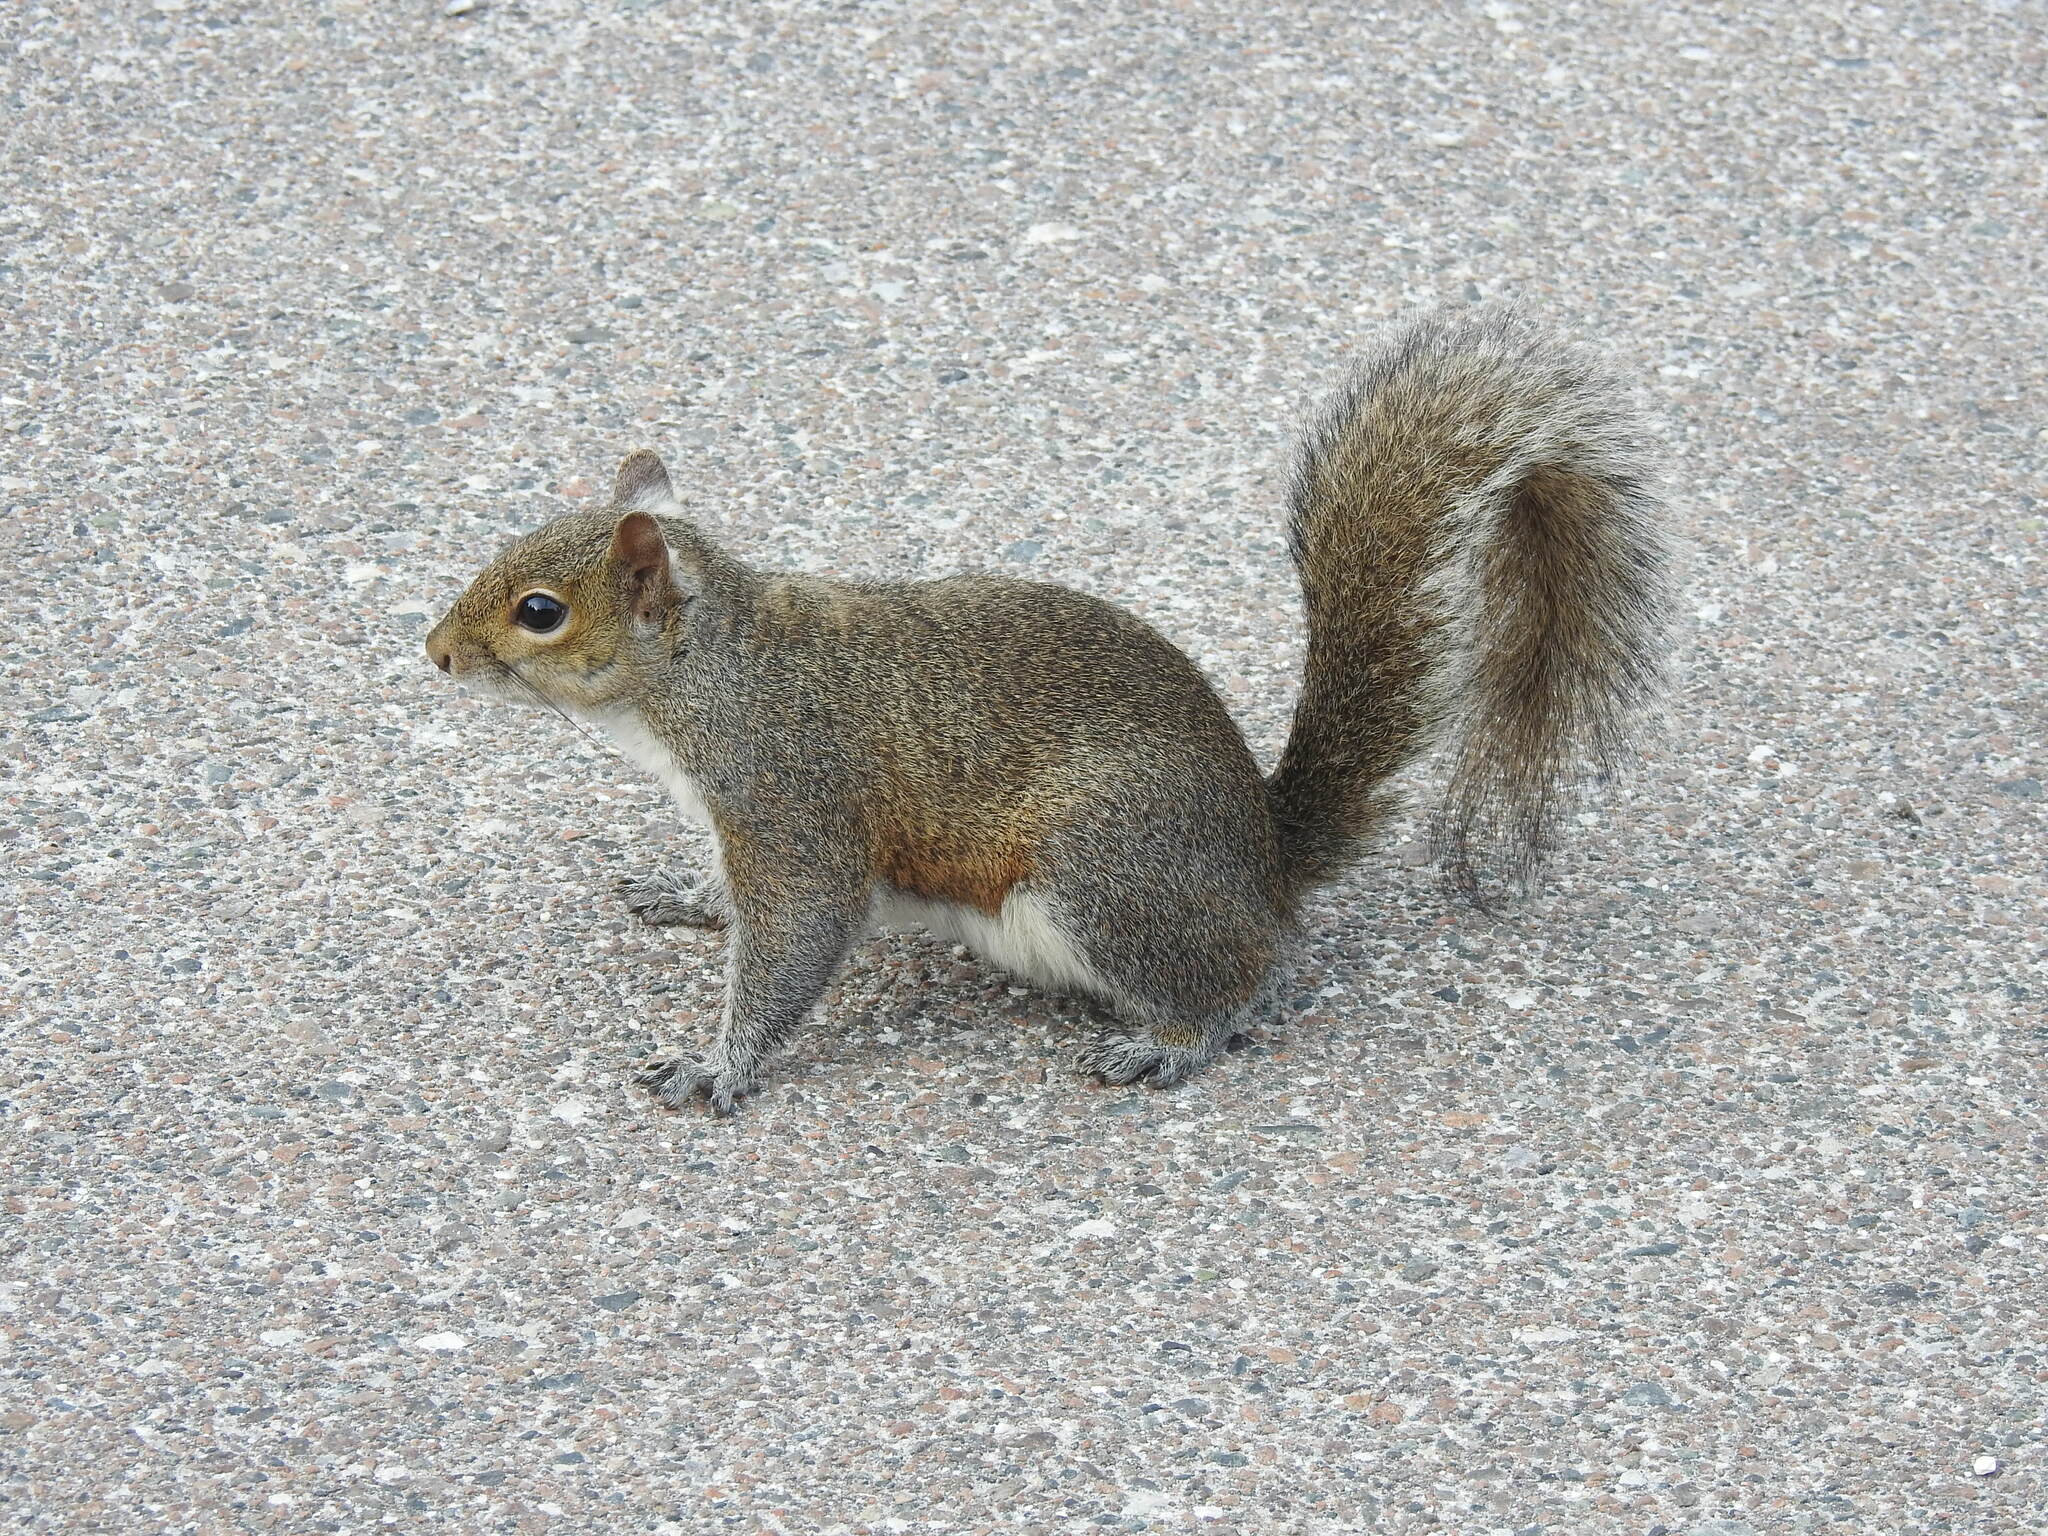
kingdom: Animalia
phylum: Chordata
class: Mammalia
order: Rodentia
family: Sciuridae
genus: Sciurus
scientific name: Sciurus carolinensis
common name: Eastern gray squirrel
